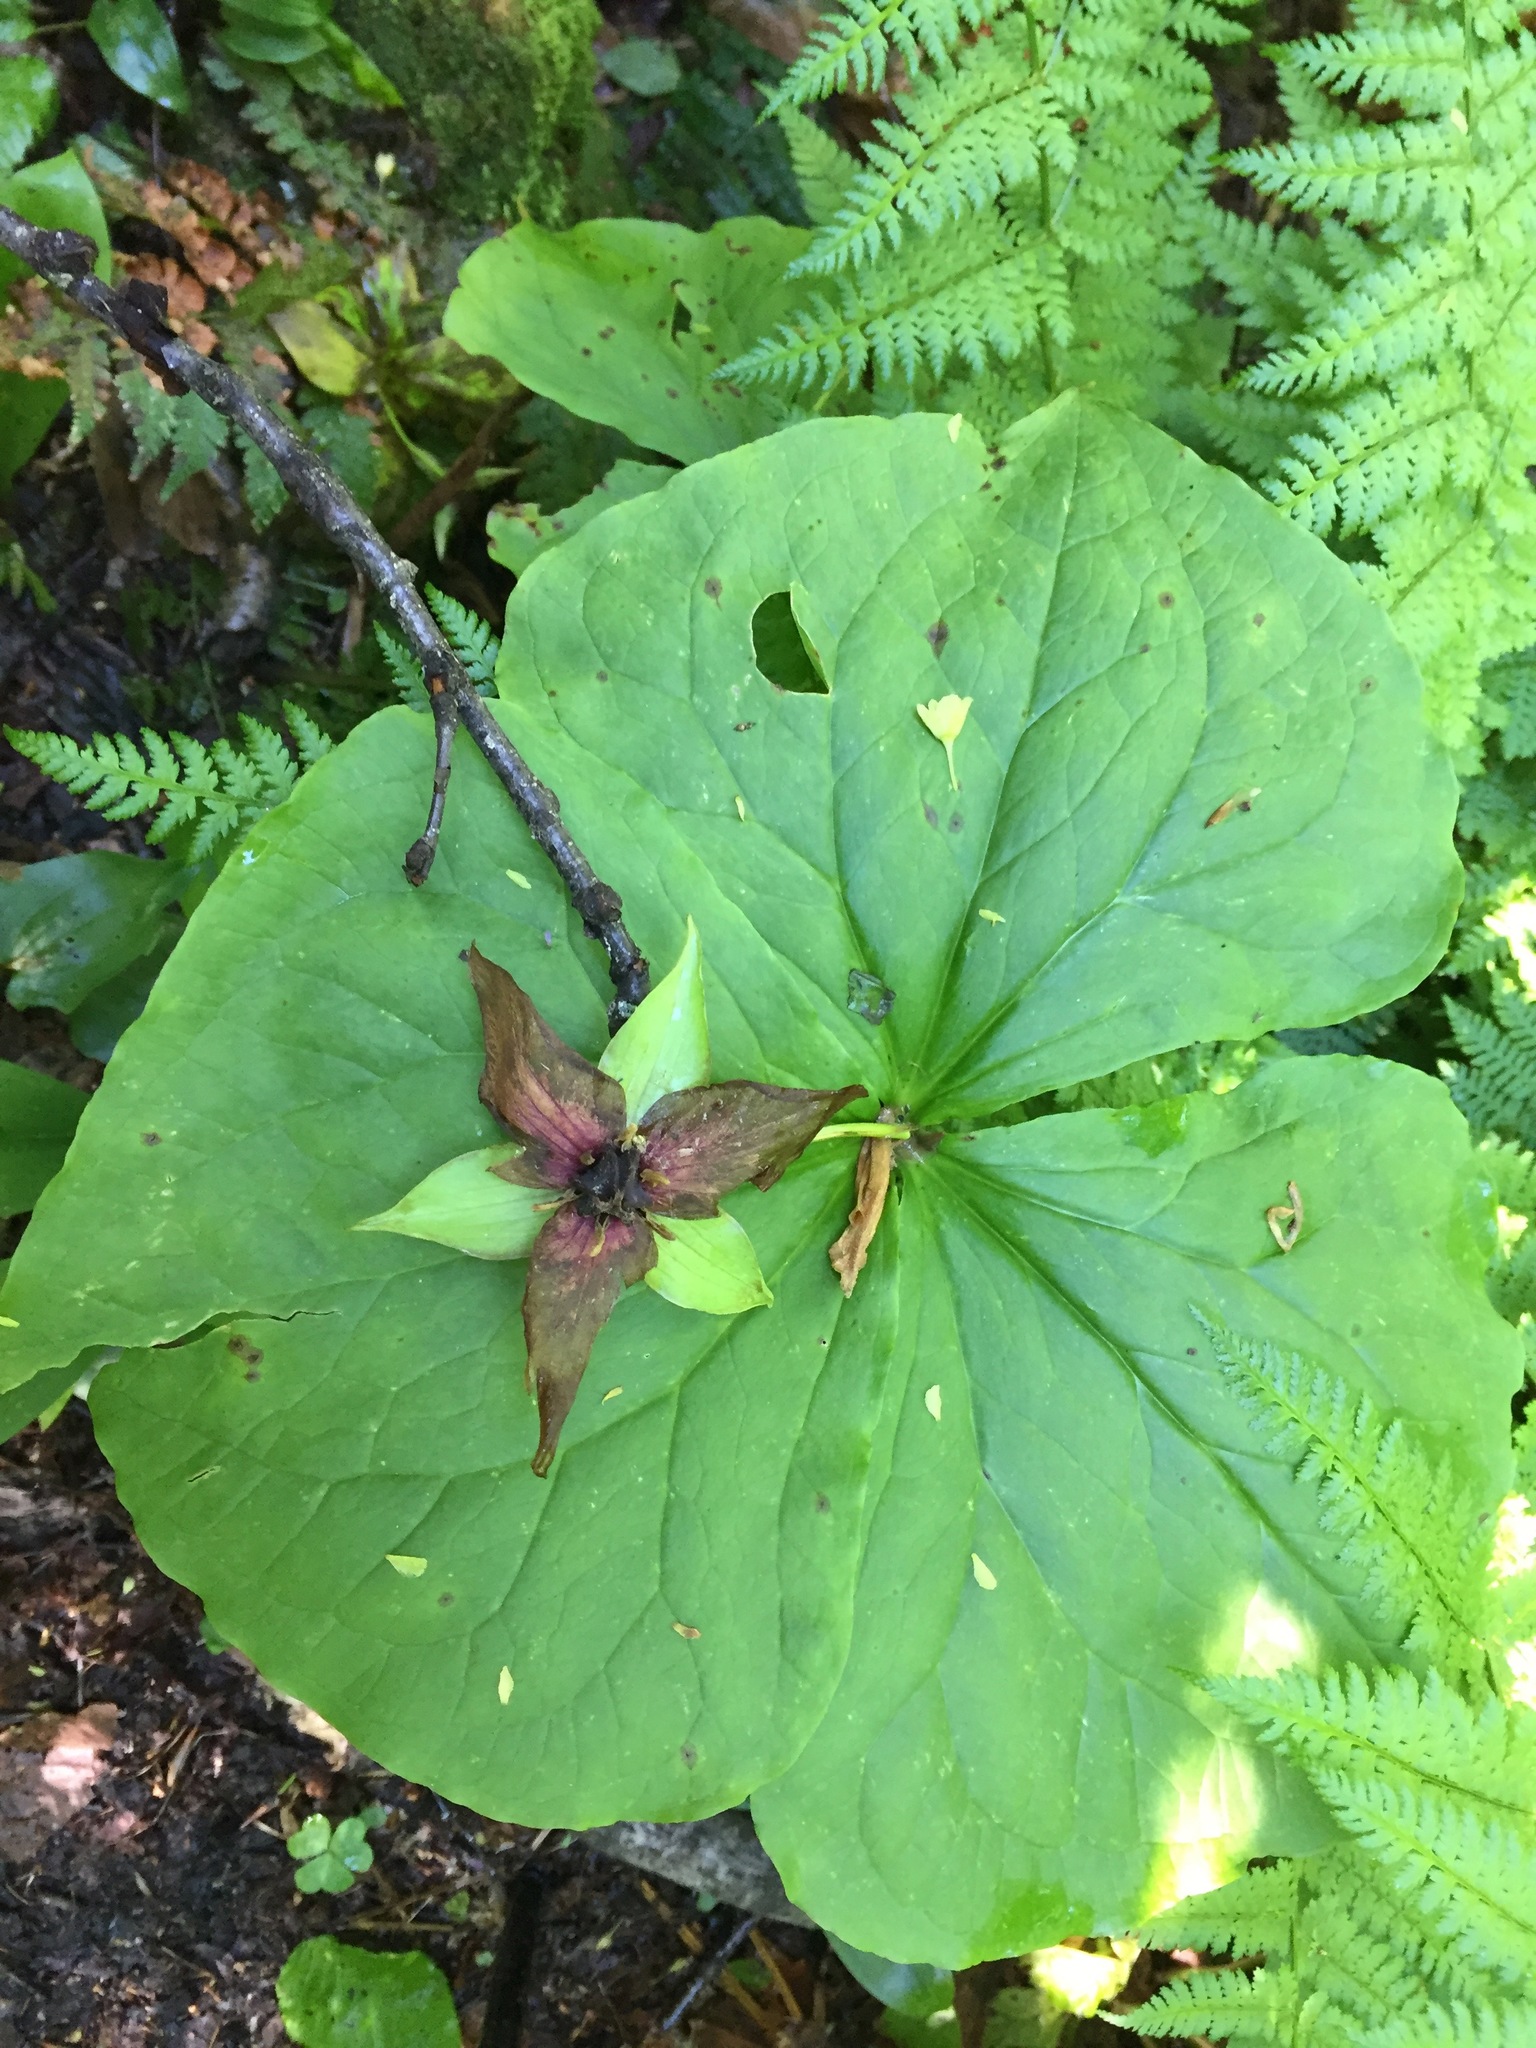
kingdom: Plantae
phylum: Tracheophyta
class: Liliopsida
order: Liliales
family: Melanthiaceae
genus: Trillium
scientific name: Trillium erectum
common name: Purple trillium
